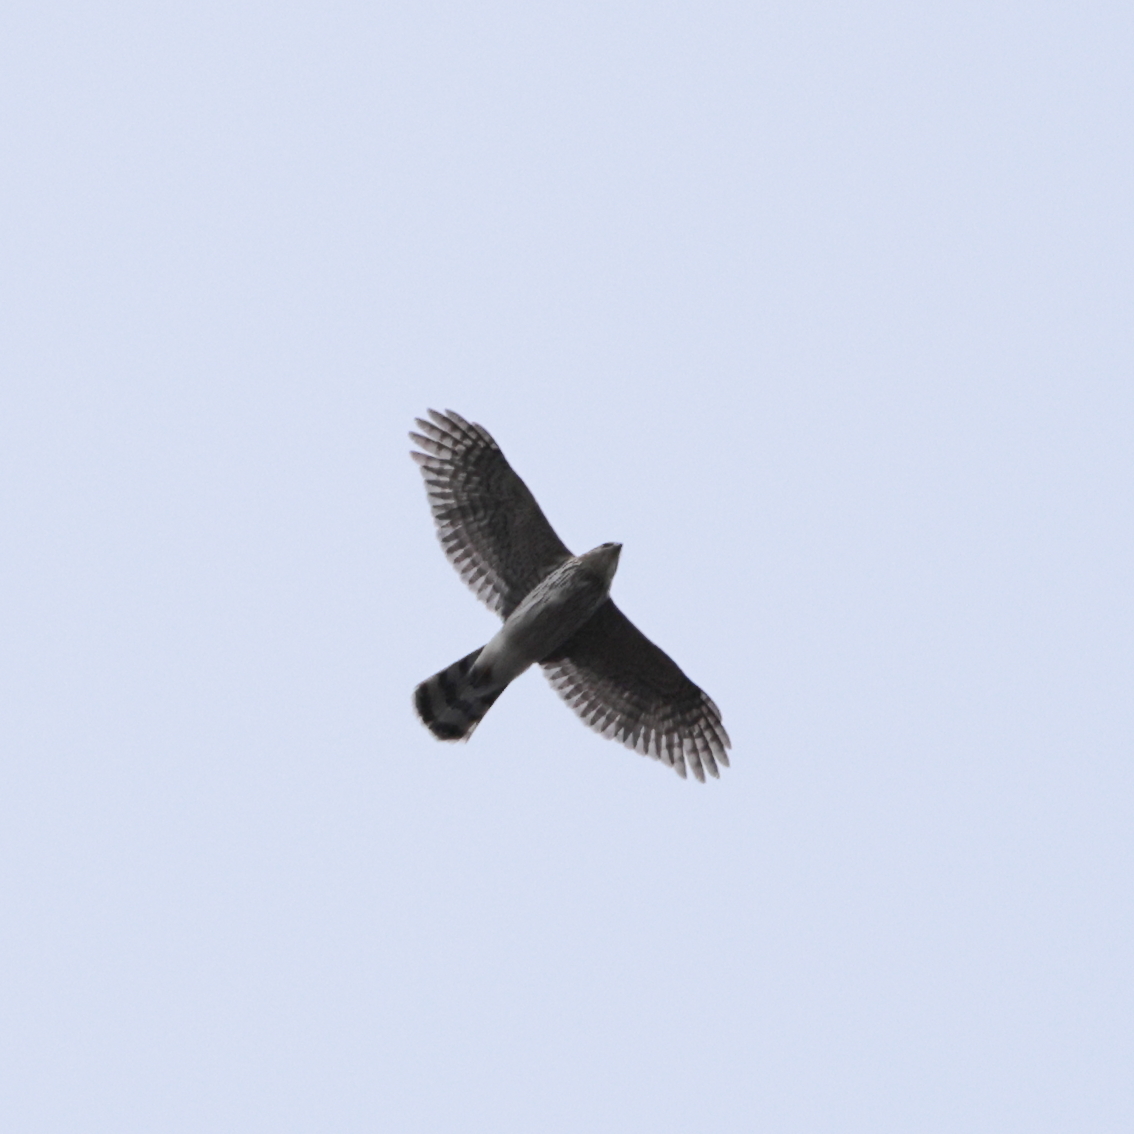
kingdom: Animalia
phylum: Chordata
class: Aves
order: Accipitriformes
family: Accipitridae
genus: Accipiter
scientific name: Accipiter cooperii
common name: Cooper's hawk
